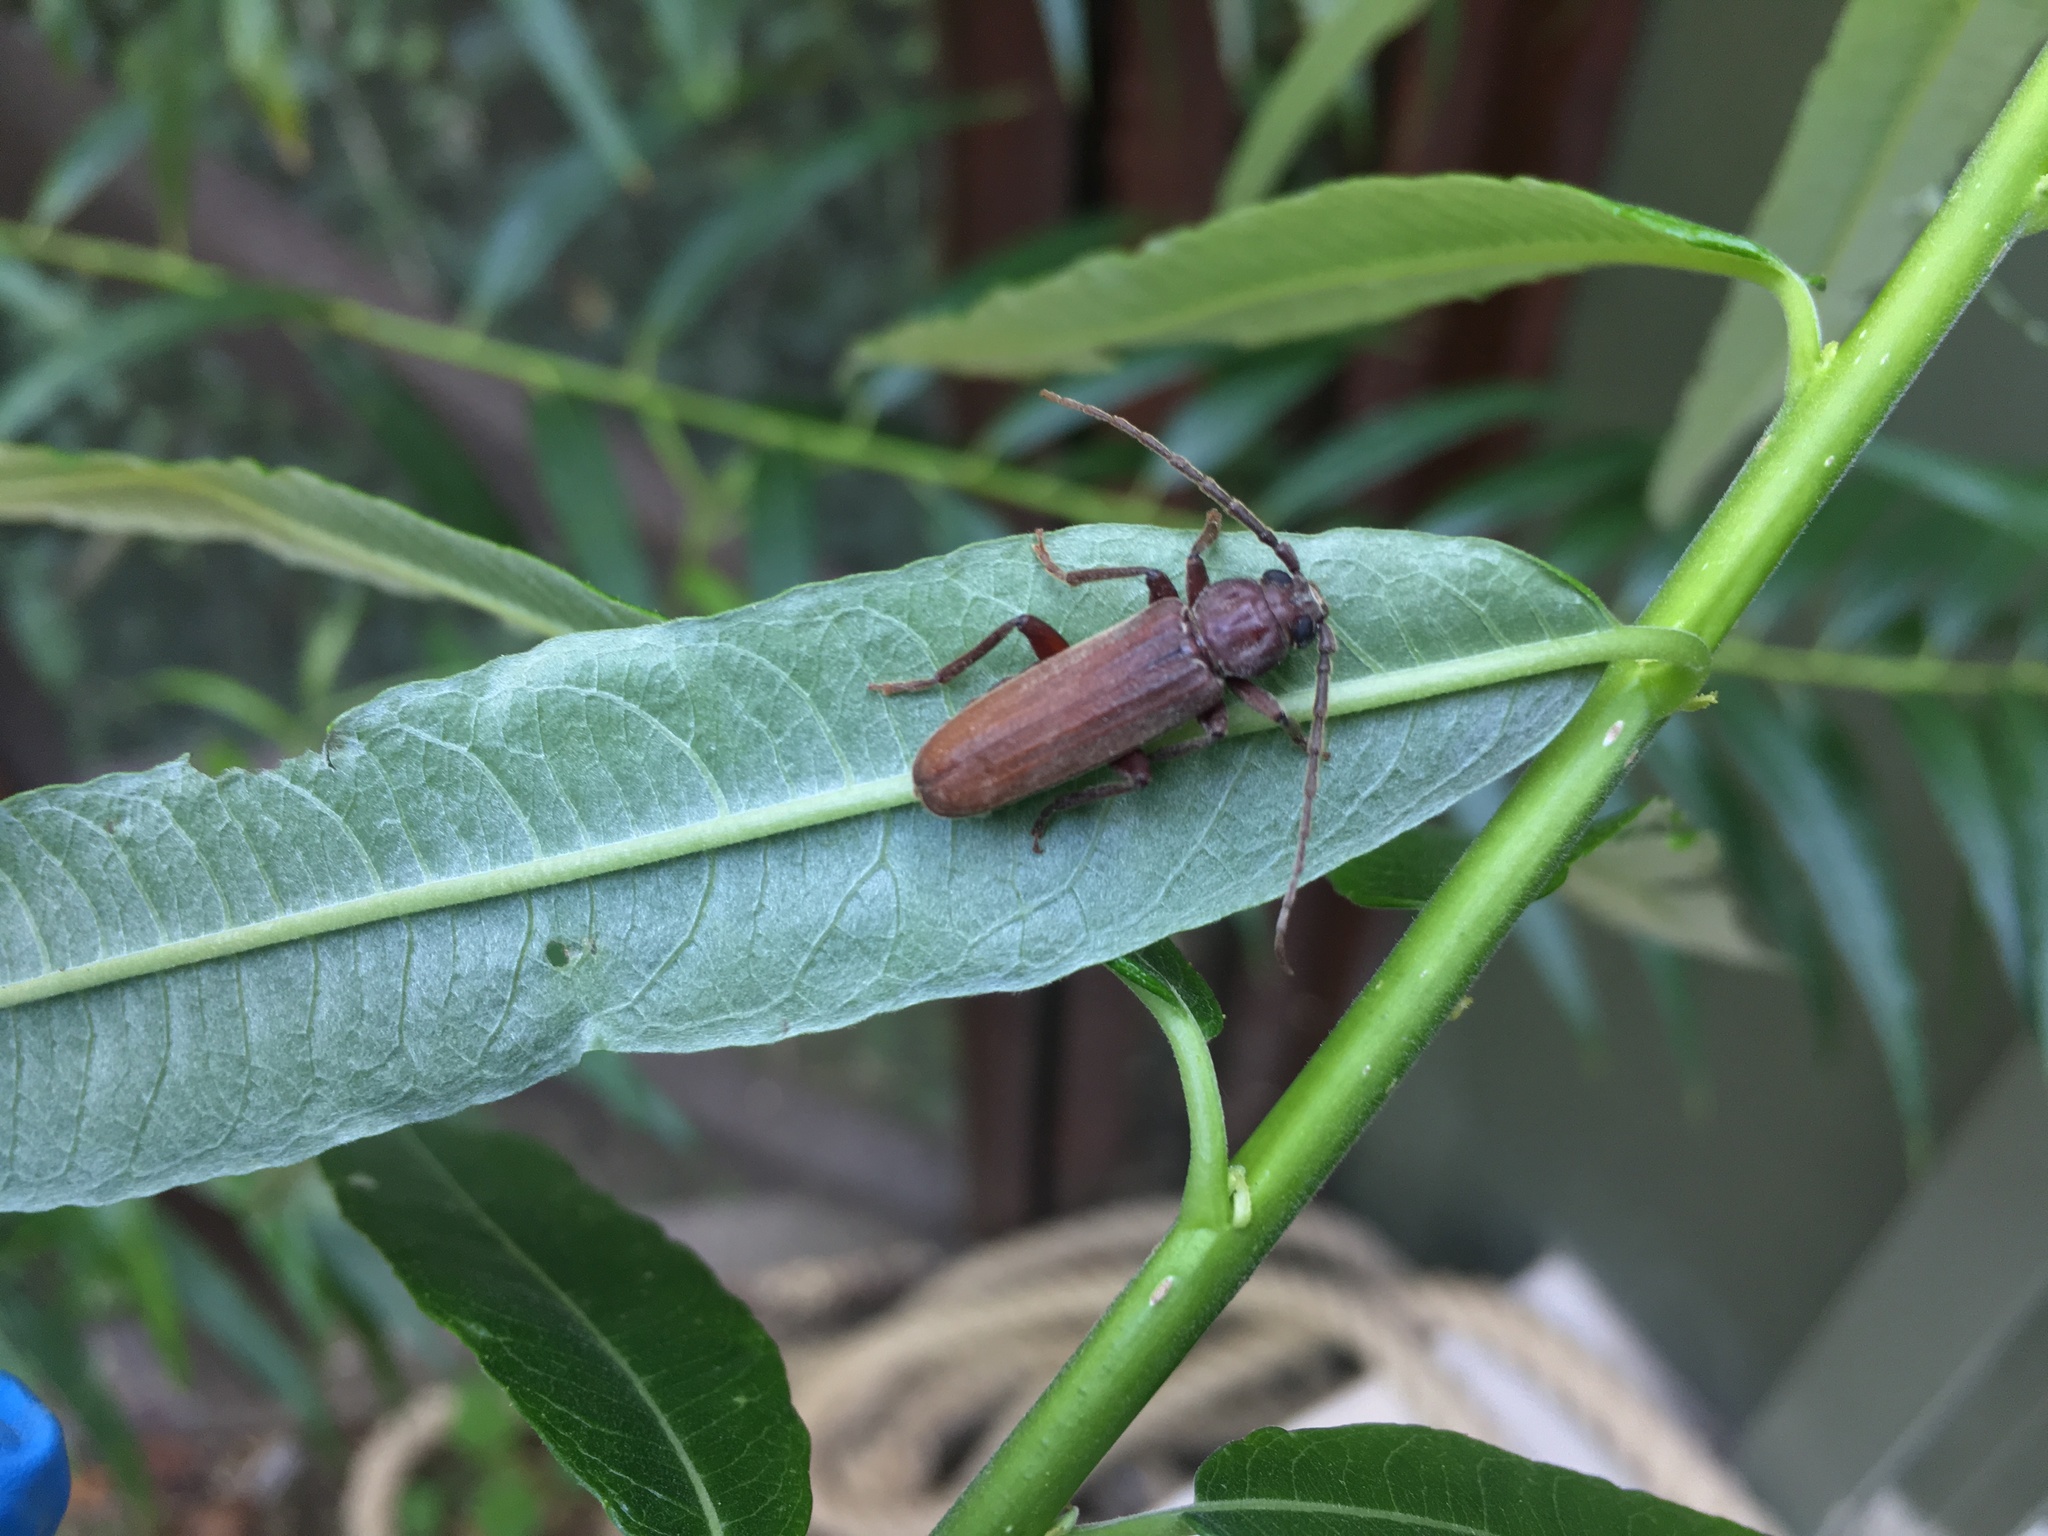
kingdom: Animalia
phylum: Arthropoda
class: Insecta
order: Coleoptera
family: Cerambycidae
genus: Arhopalus
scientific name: Arhopalus rusticus
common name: Rust pine borer
